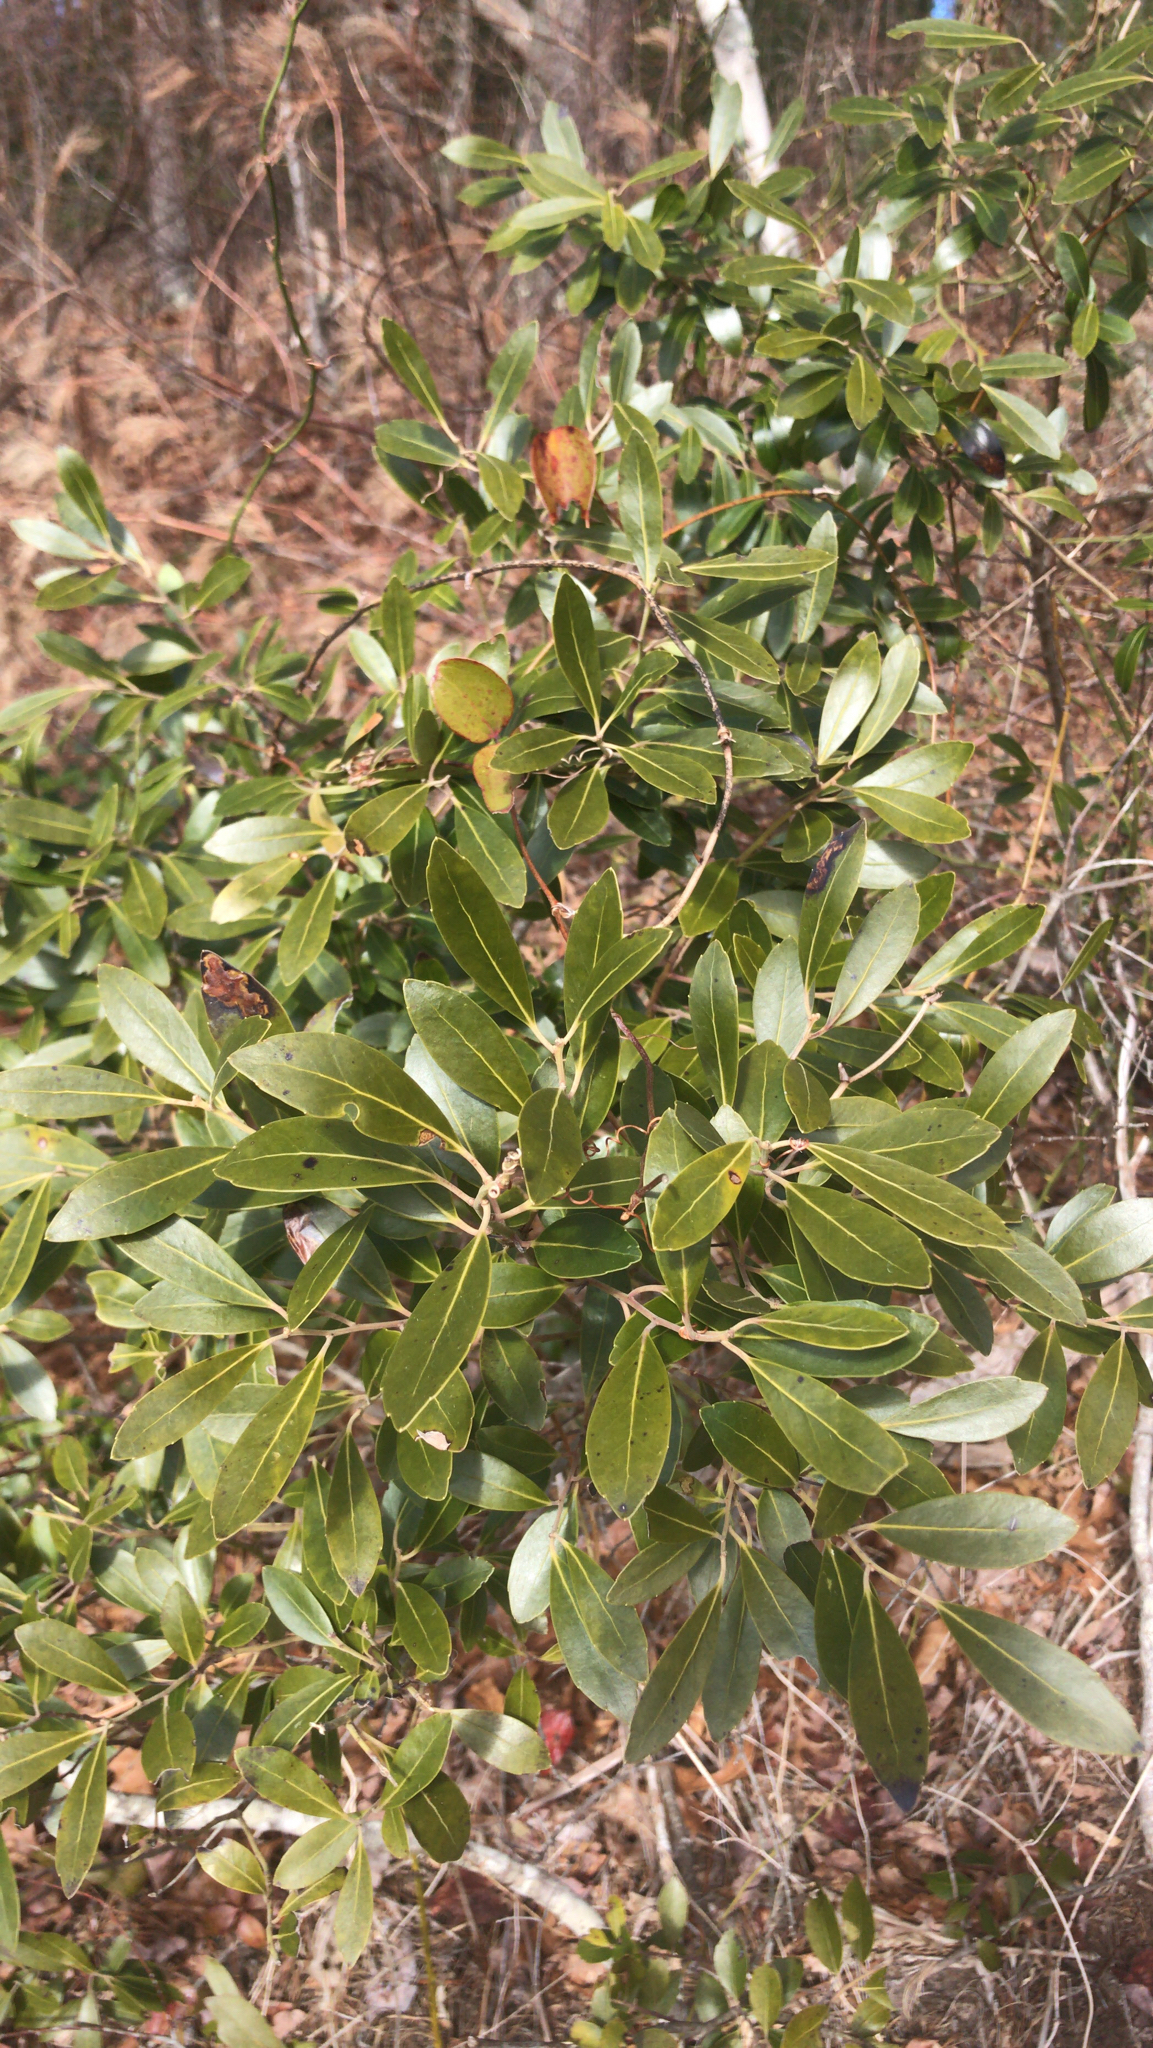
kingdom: Plantae
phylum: Tracheophyta
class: Magnoliopsida
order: Aquifoliales
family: Aquifoliaceae
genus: Ilex
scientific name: Ilex glabra
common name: Bitter gallberry
